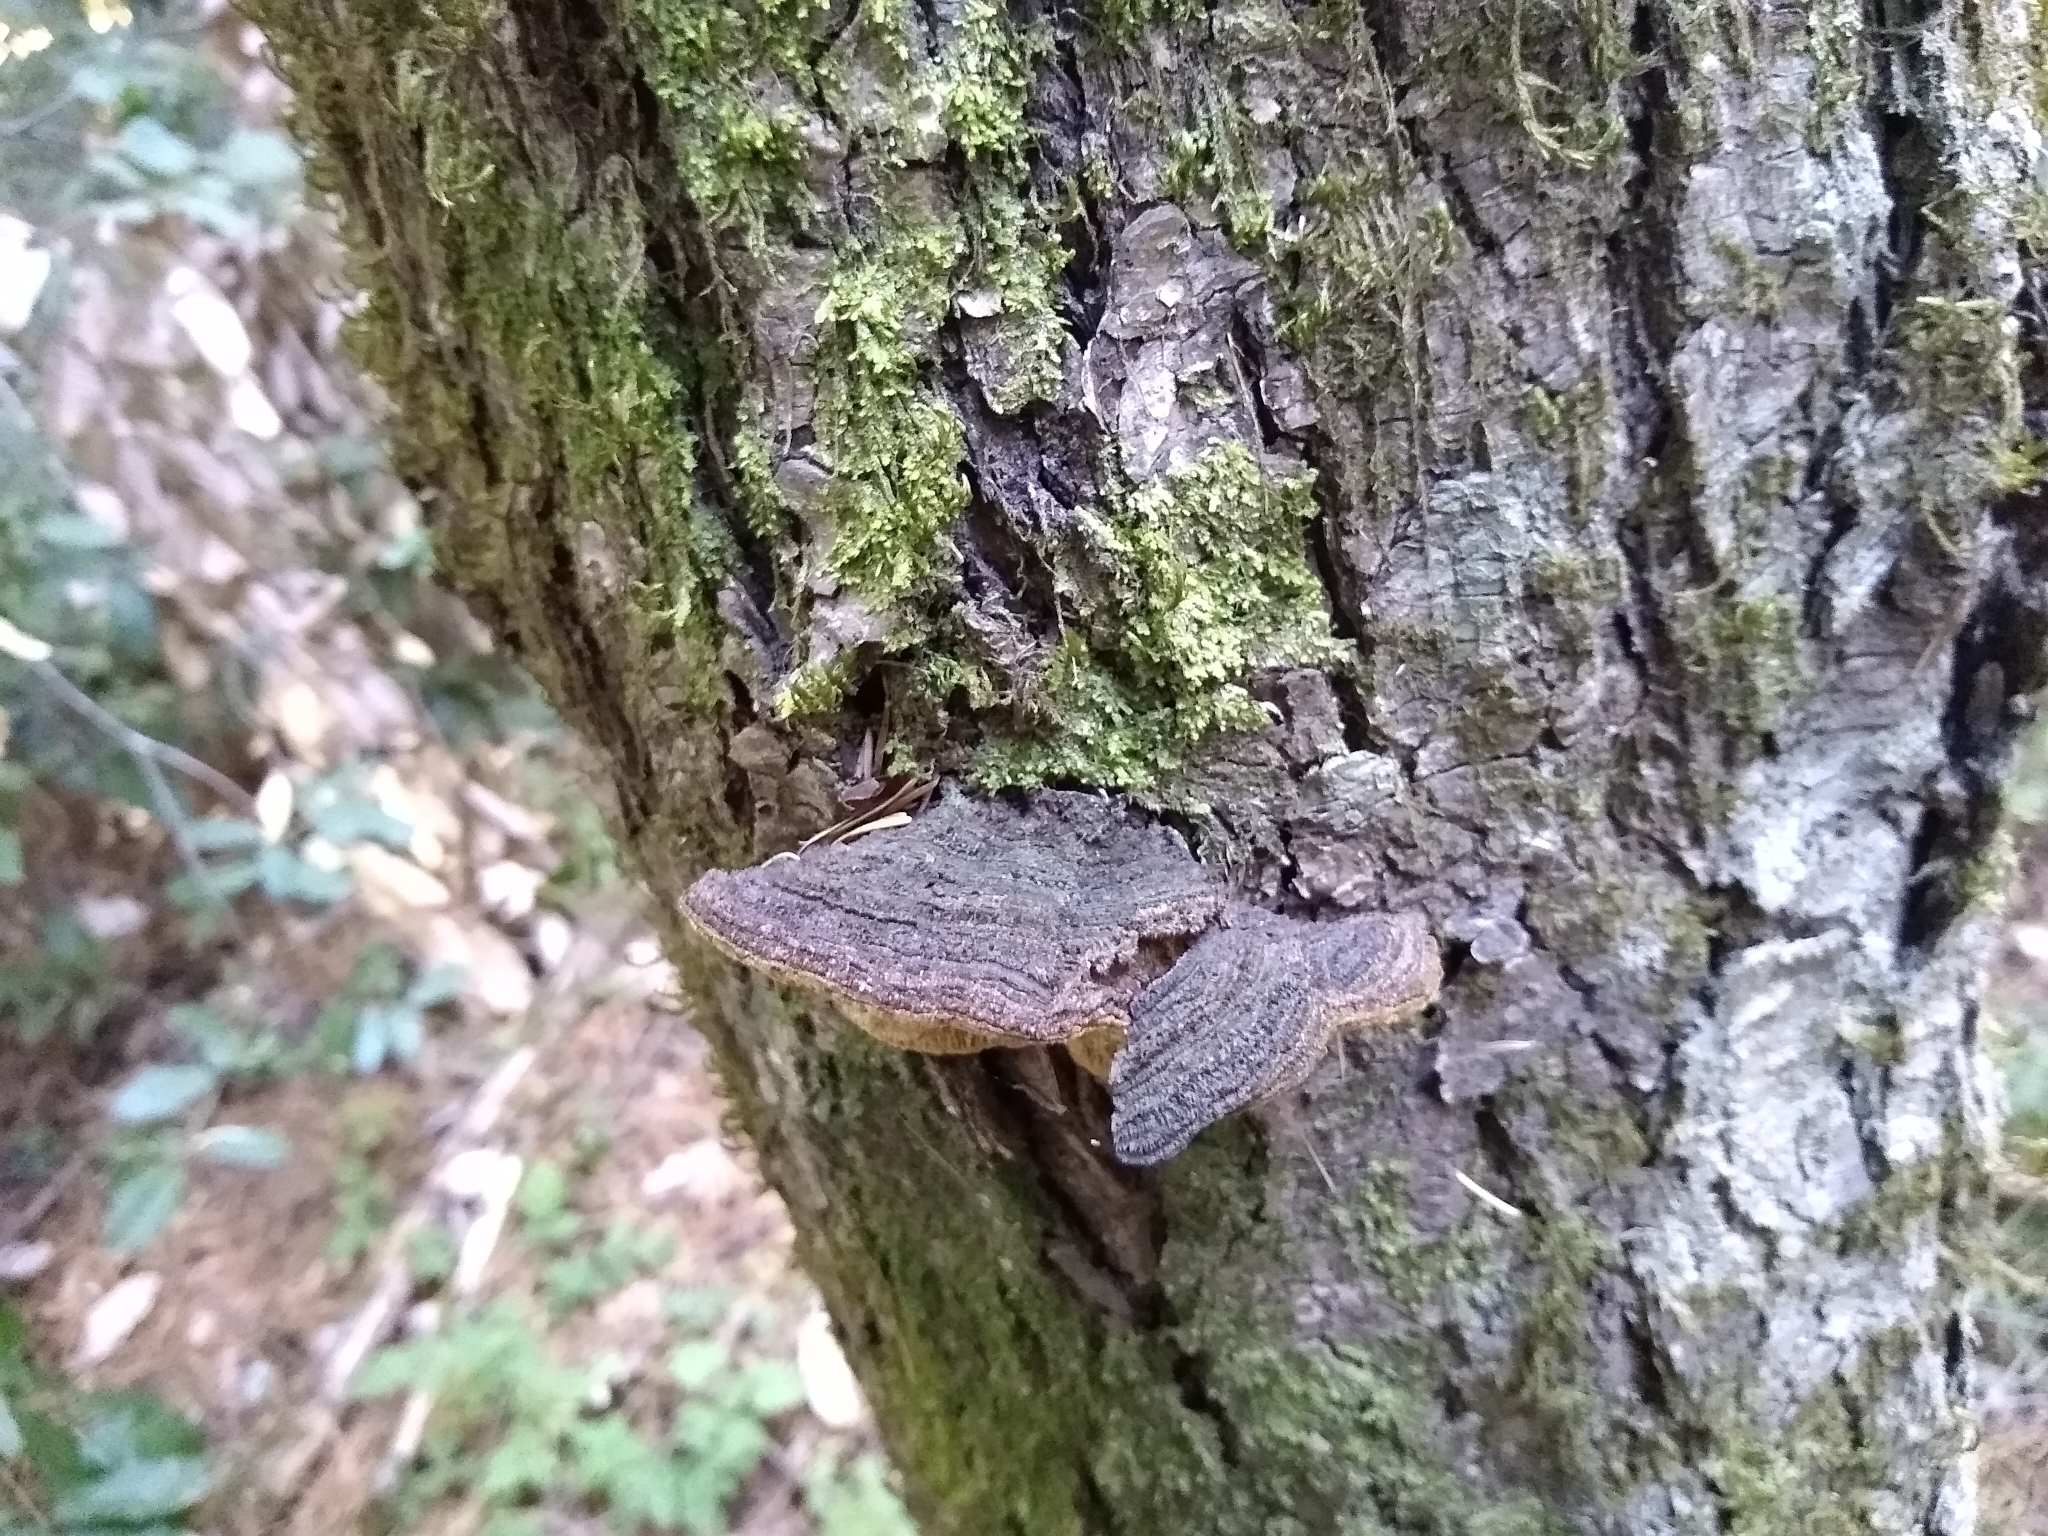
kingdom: Fungi
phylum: Basidiomycota
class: Agaricomycetes
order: Hymenochaetales
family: Hymenochaetaceae
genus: Porodaedalea
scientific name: Porodaedalea pini
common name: Pine bracket
